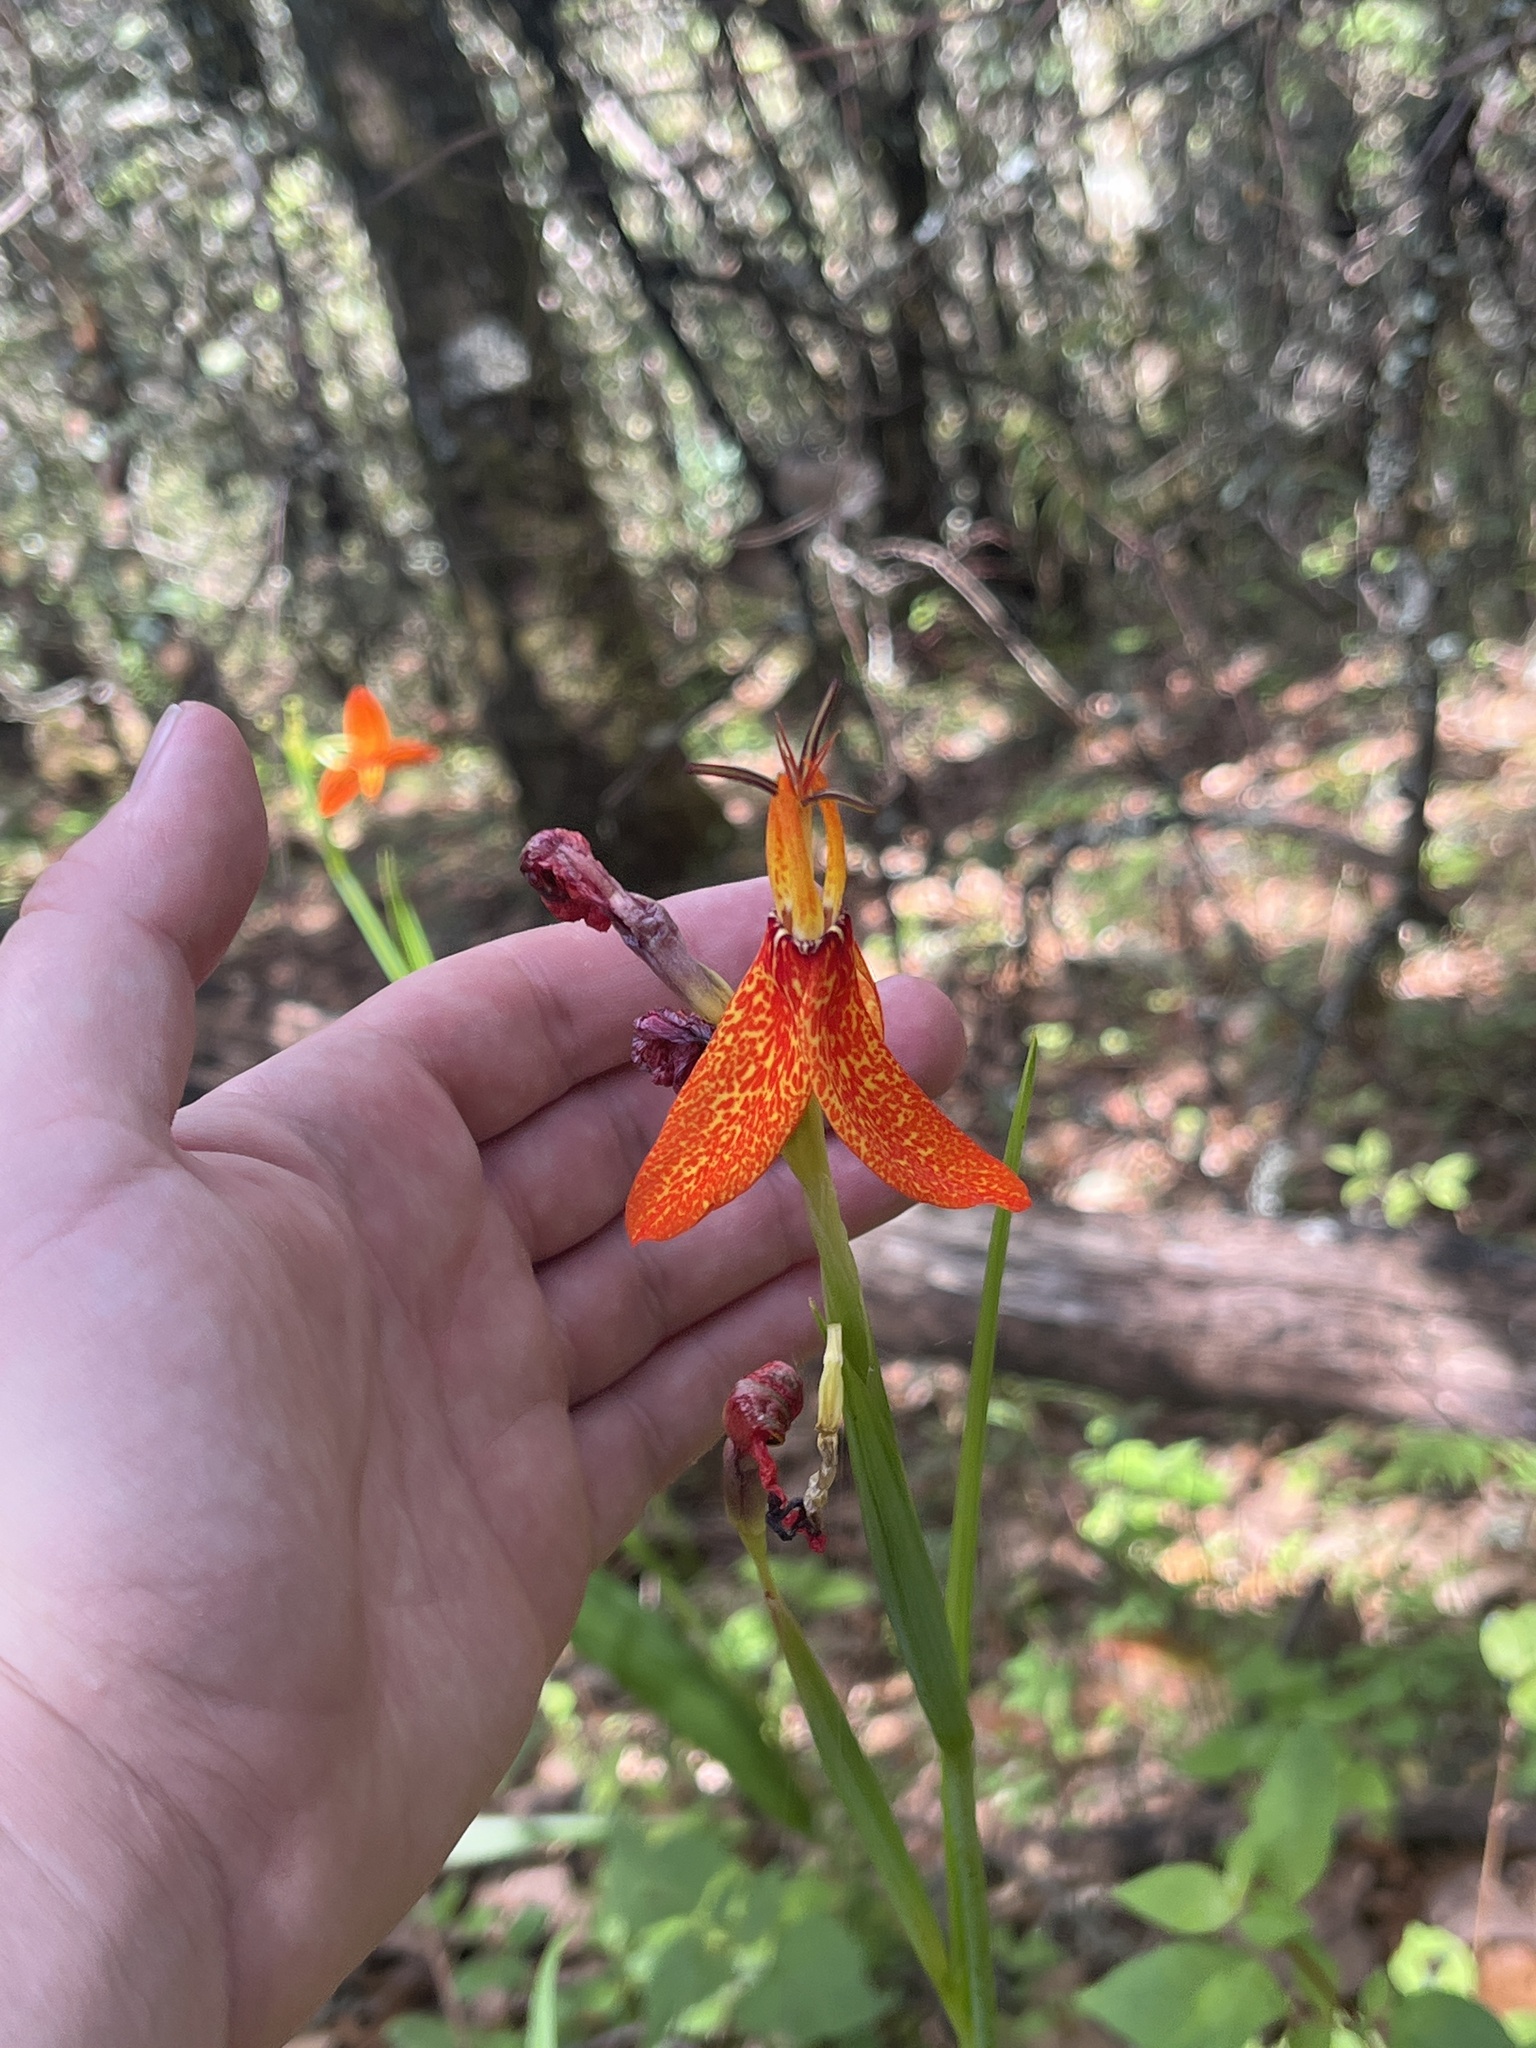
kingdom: Plantae
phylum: Tracheophyta
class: Liliopsida
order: Asparagales
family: Iridaceae
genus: Tigridia
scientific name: Tigridia orthantha
